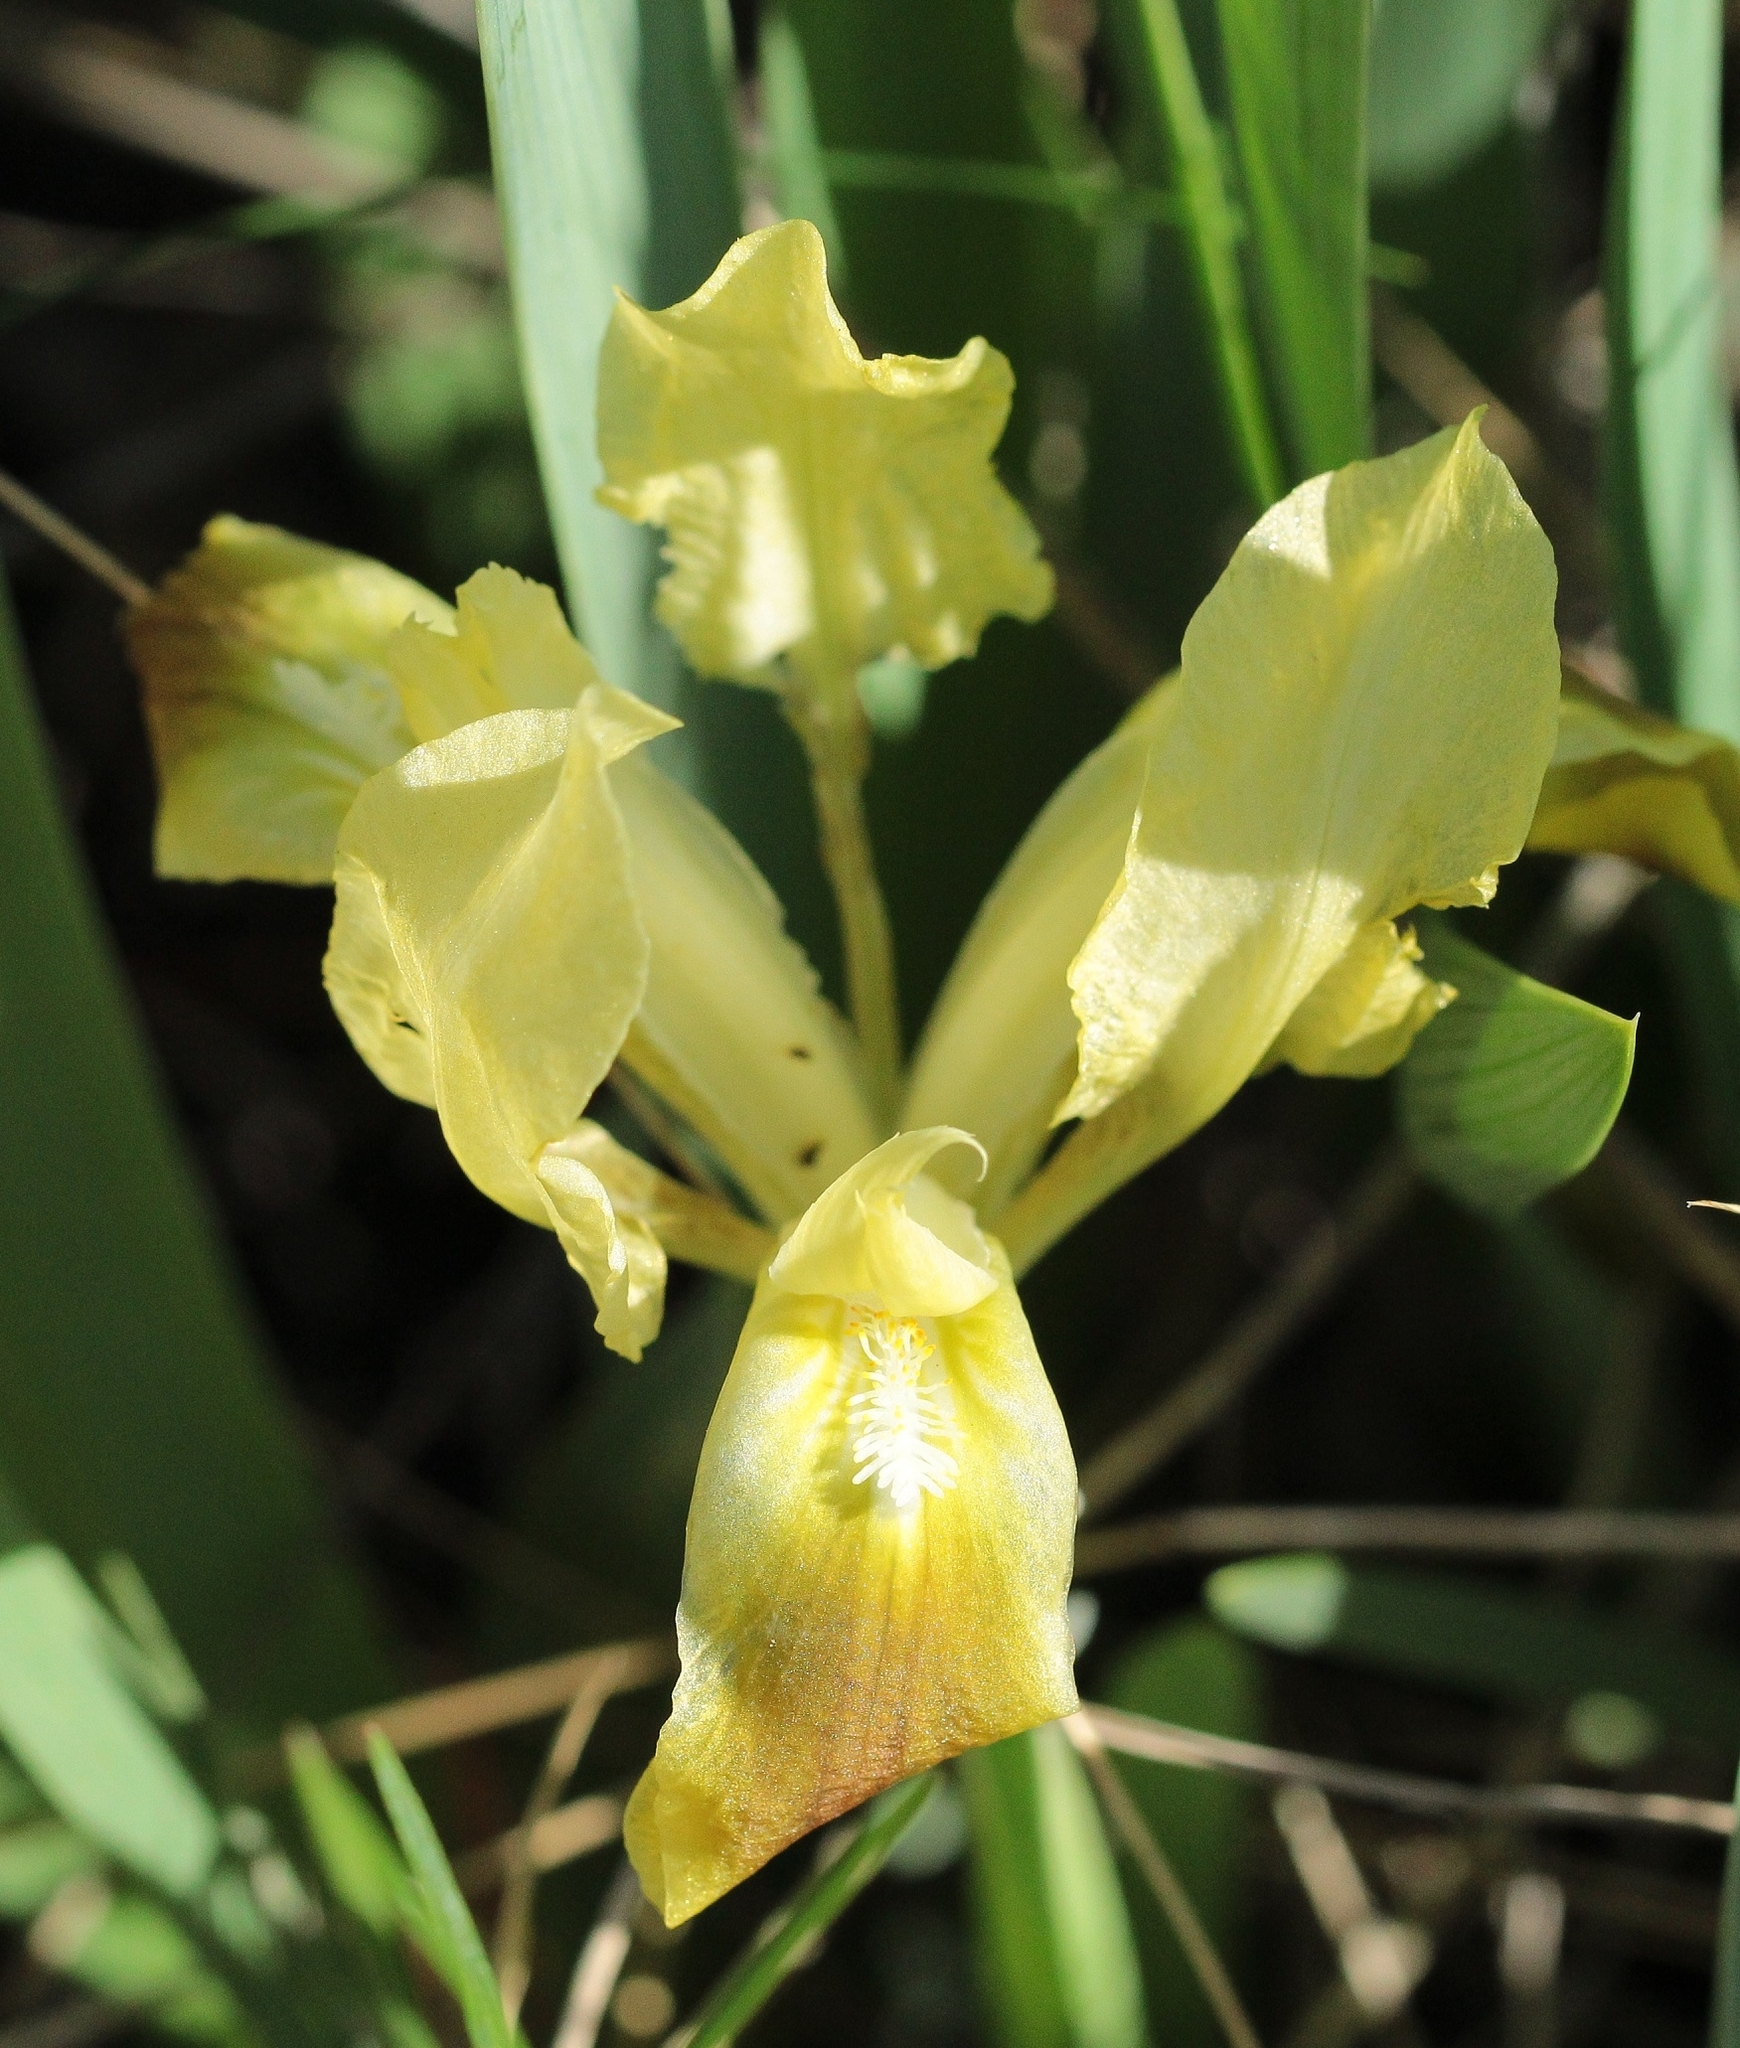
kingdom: Plantae
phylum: Tracheophyta
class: Liliopsida
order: Asparagales
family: Iridaceae
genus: Iris
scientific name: Iris pumila
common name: Dwarf iris
